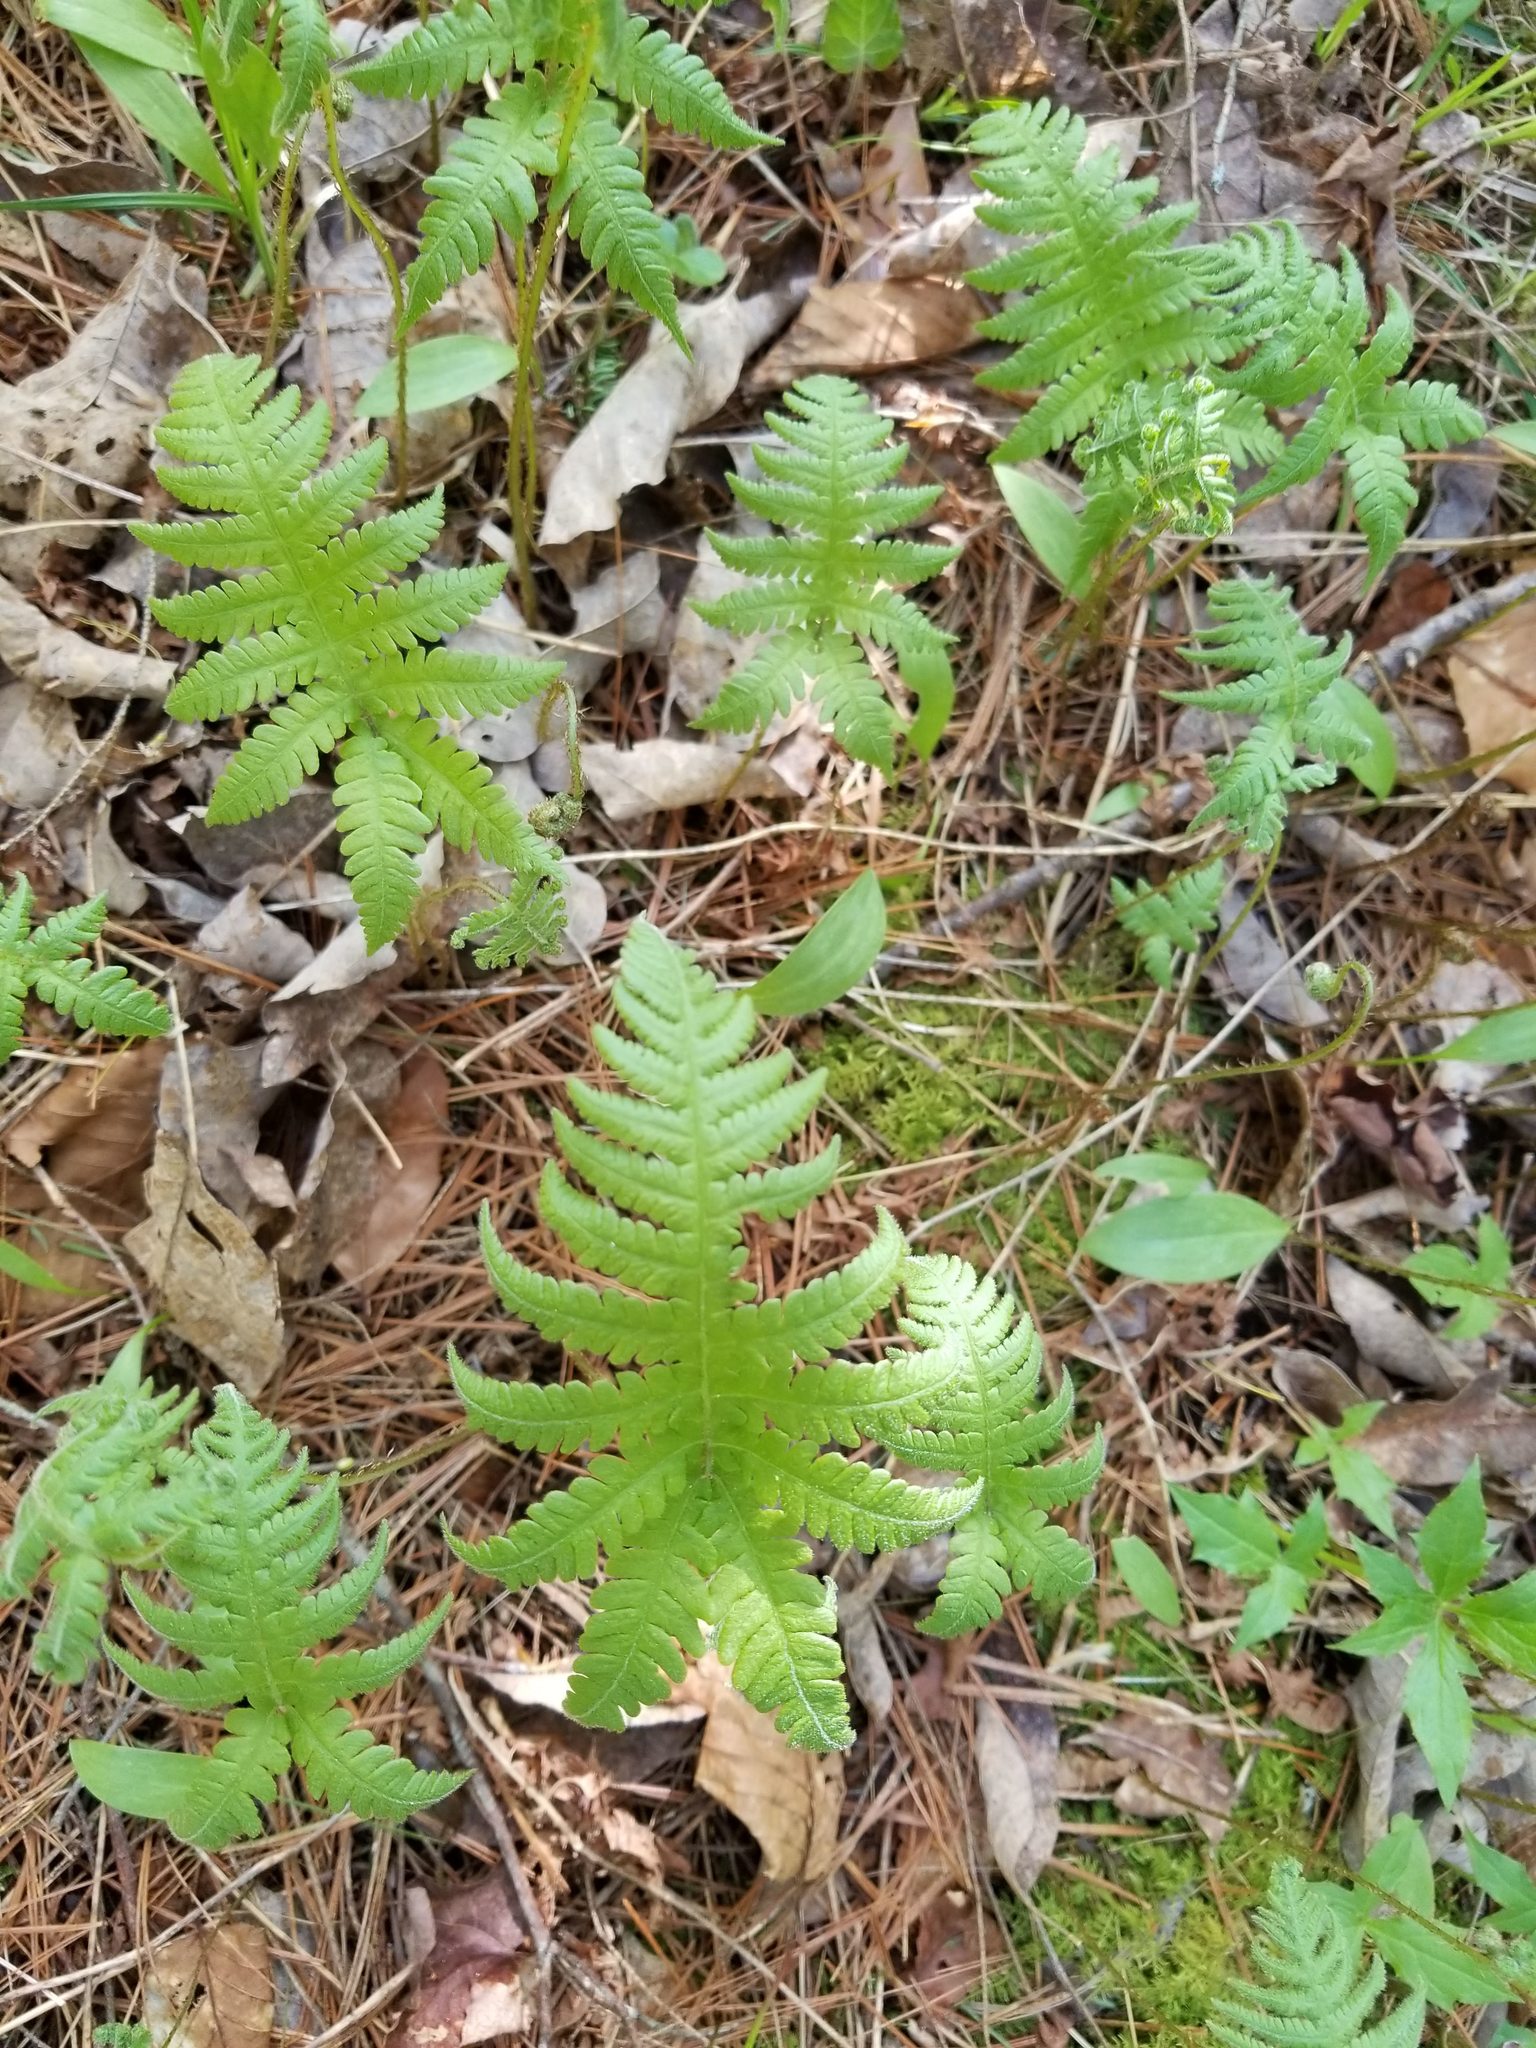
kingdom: Plantae
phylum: Tracheophyta
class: Polypodiopsida
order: Polypodiales
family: Thelypteridaceae
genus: Phegopteris
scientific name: Phegopteris connectilis
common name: Beech fern
